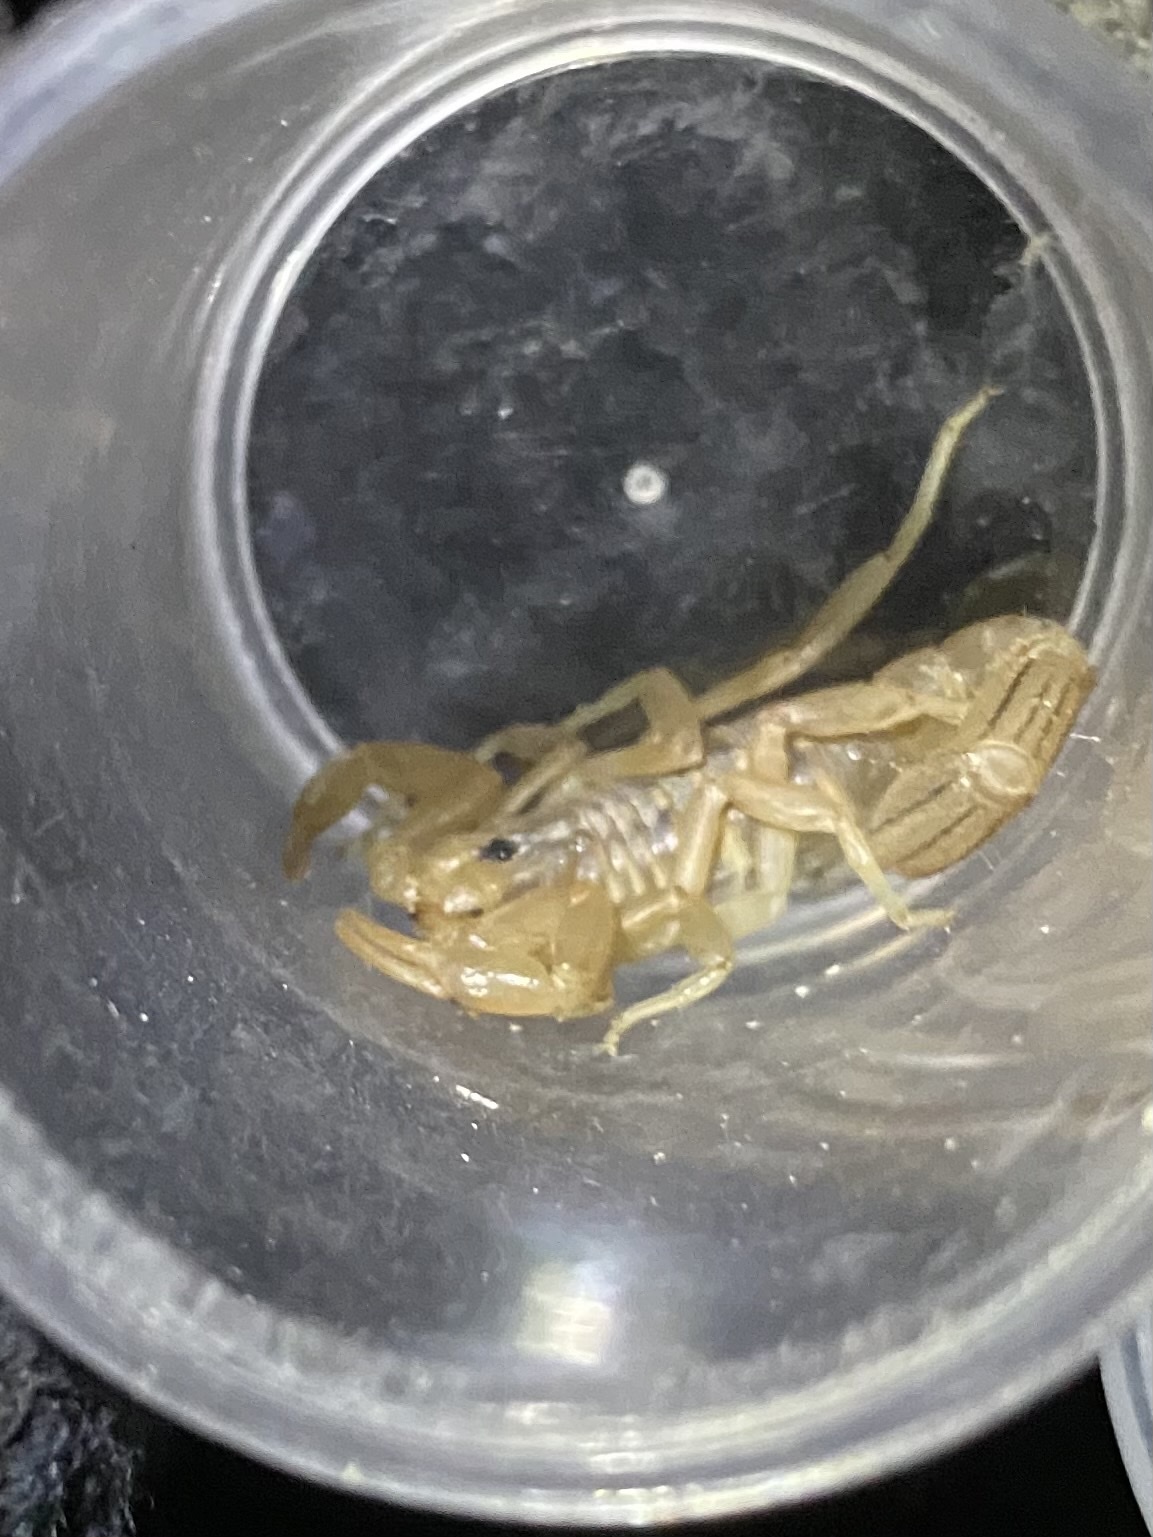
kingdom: Animalia
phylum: Arthropoda
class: Arachnida
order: Scorpiones
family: Vaejovidae
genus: Paravaejovis
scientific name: Paravaejovis spinigerus
